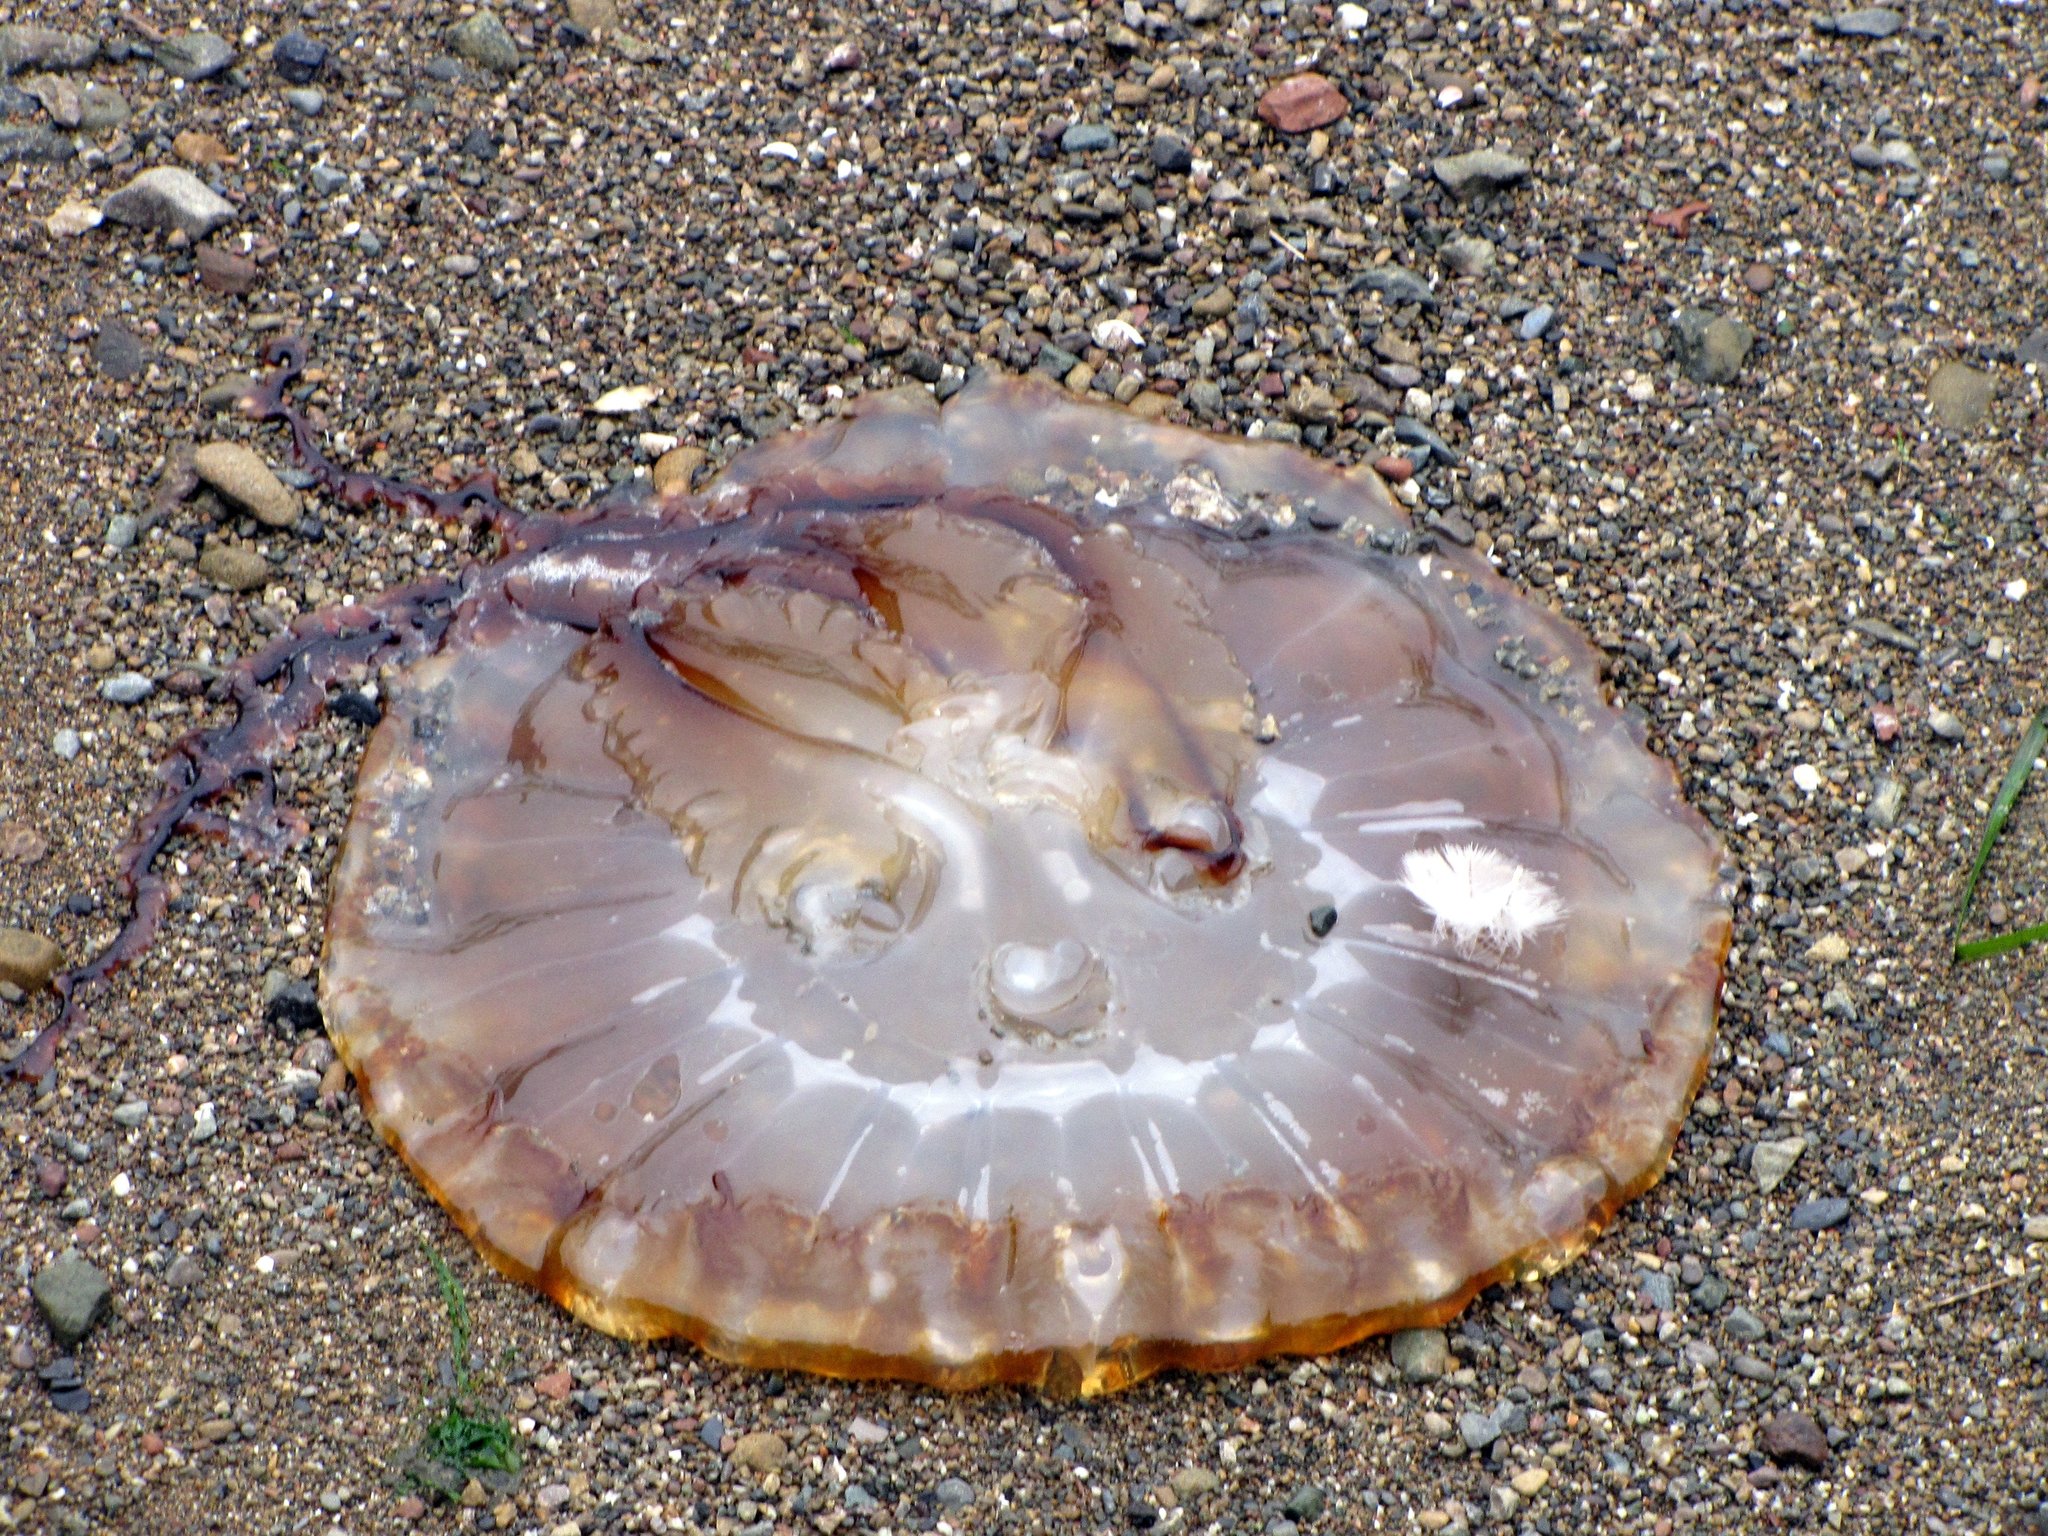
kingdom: Animalia
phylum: Cnidaria
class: Scyphozoa
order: Semaeostomeae
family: Pelagiidae
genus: Chrysaora
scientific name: Chrysaora fuscescens
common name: Sea nettle
